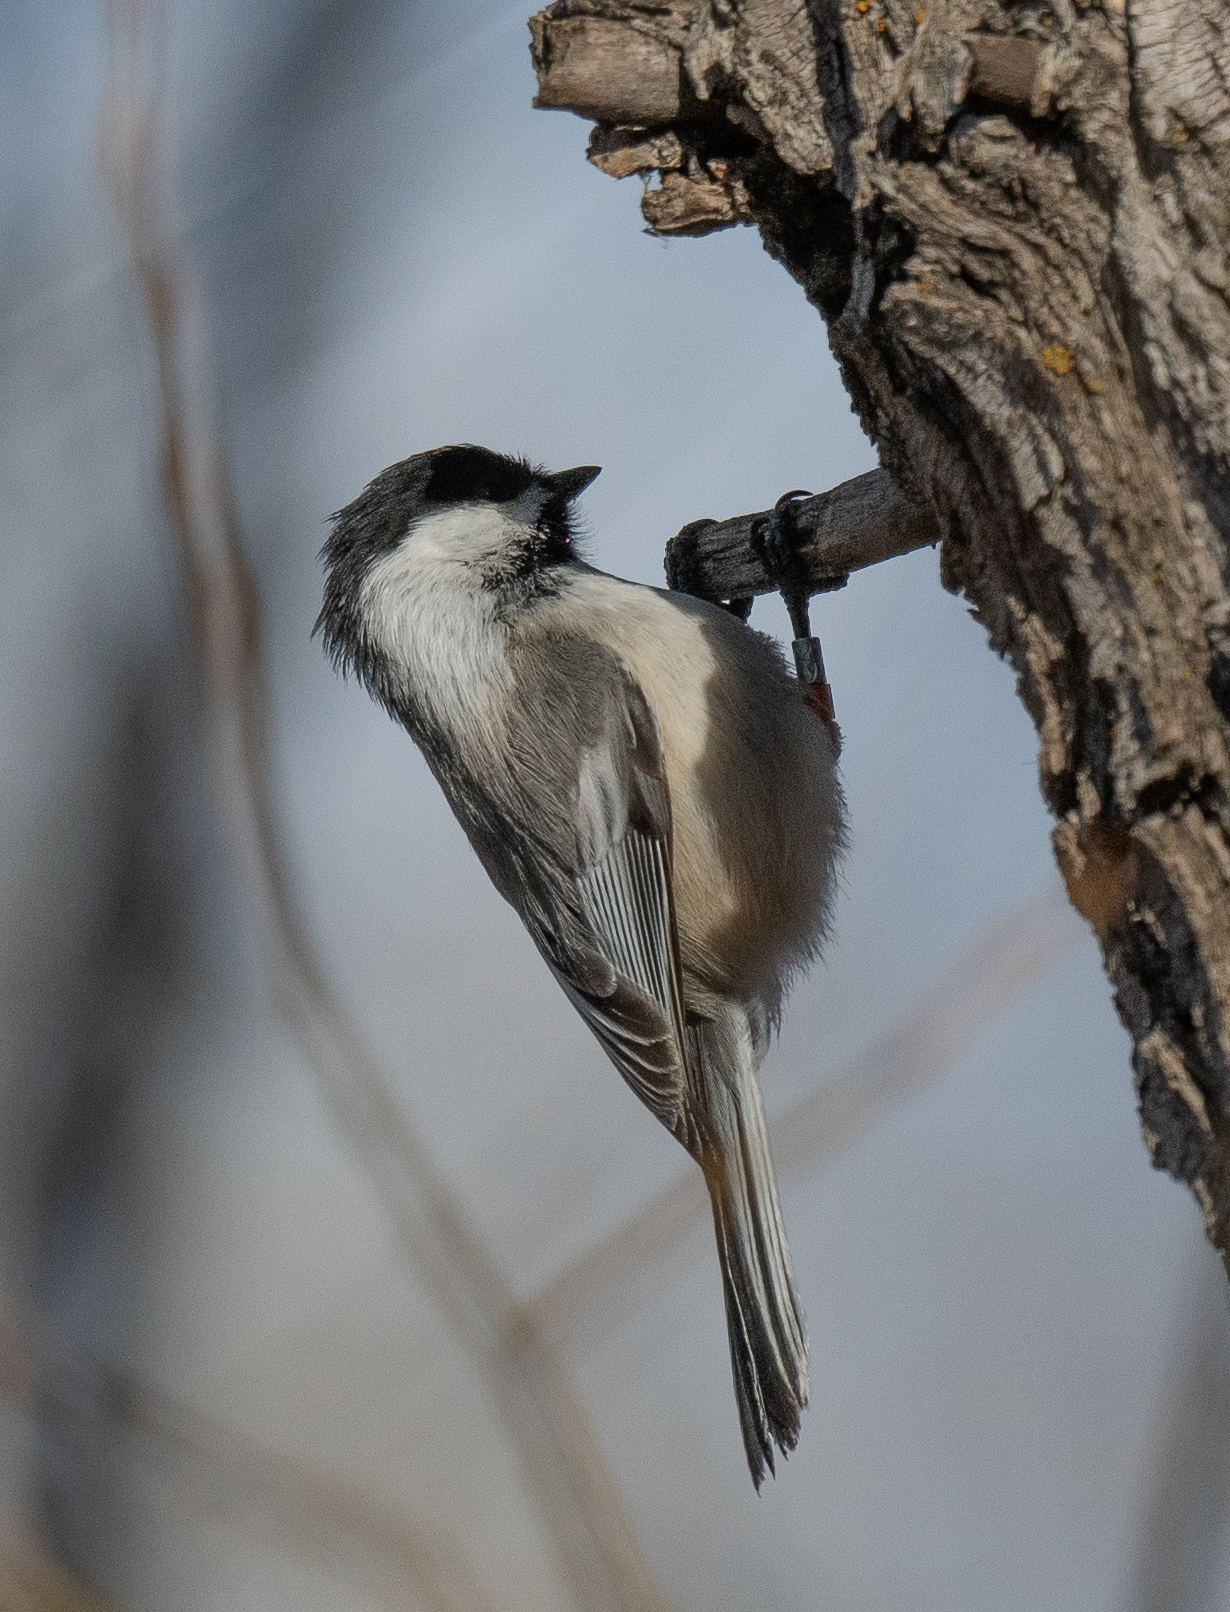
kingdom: Animalia
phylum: Chordata
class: Aves
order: Passeriformes
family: Paridae
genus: Poecile
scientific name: Poecile atricapillus
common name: Black-capped chickadee
